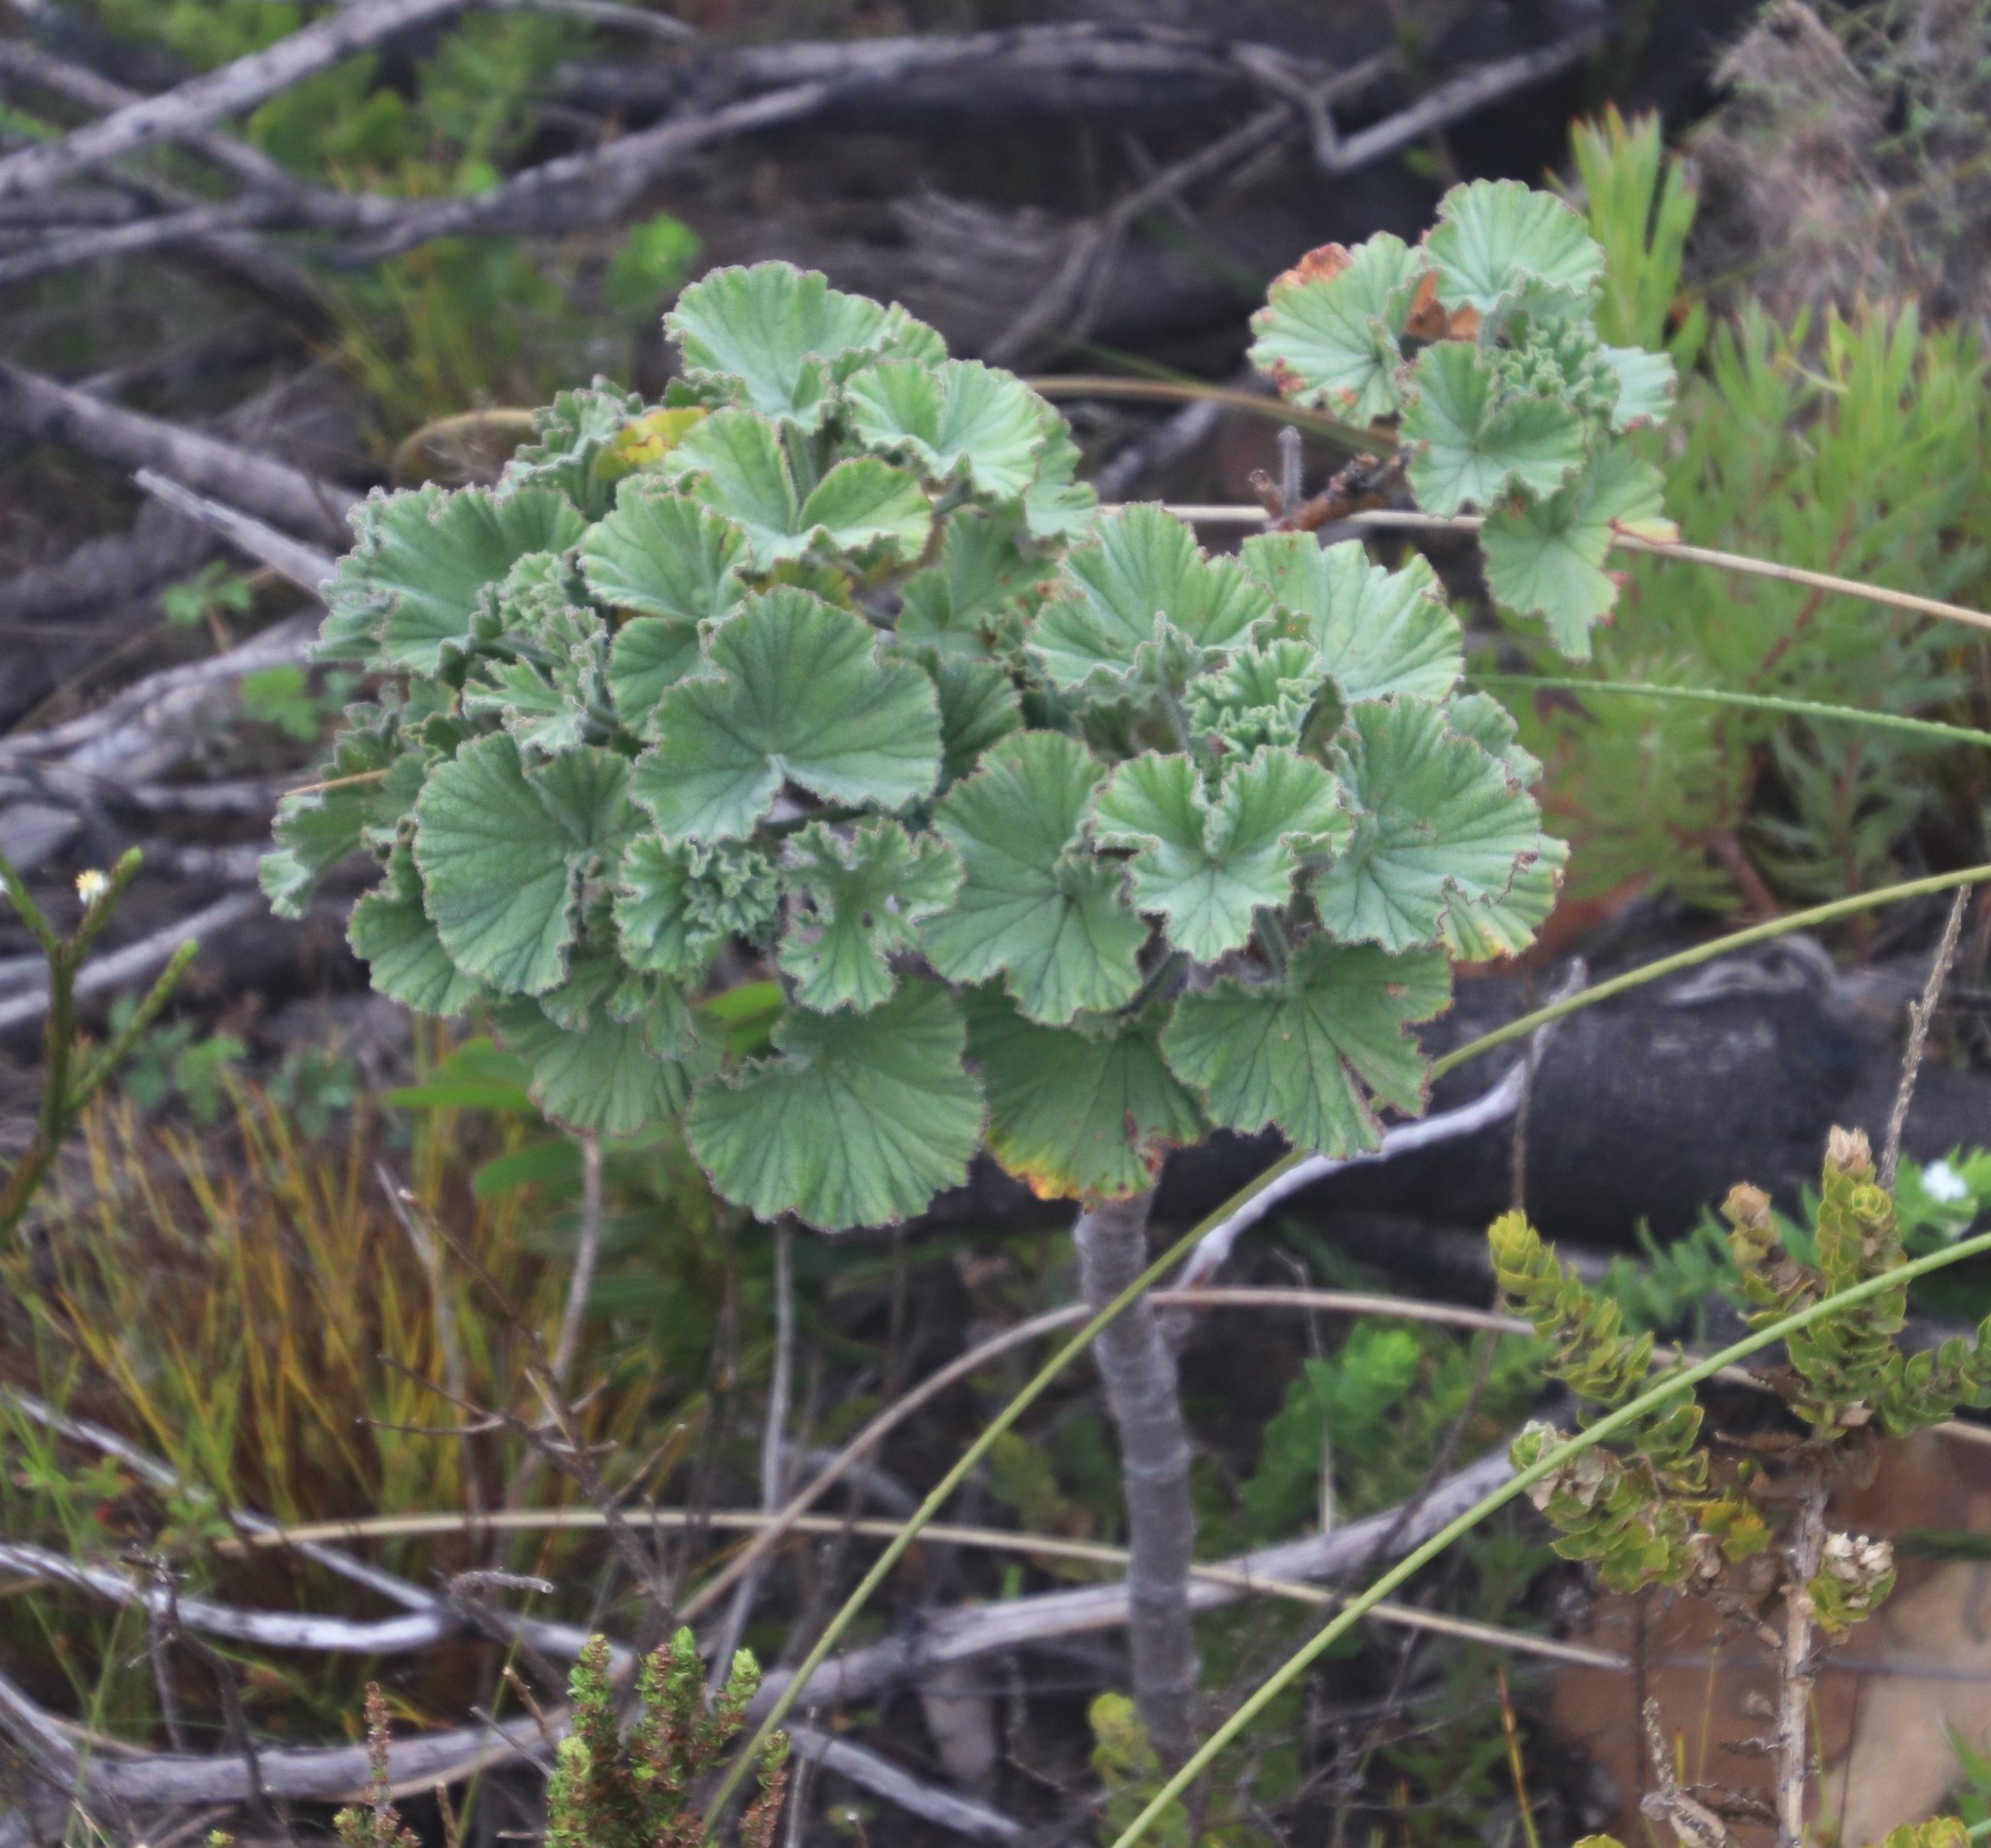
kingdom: Plantae
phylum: Tracheophyta
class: Magnoliopsida
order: Geraniales
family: Geraniaceae
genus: Pelargonium
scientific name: Pelargonium cucullatum
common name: Tree pelargonium
